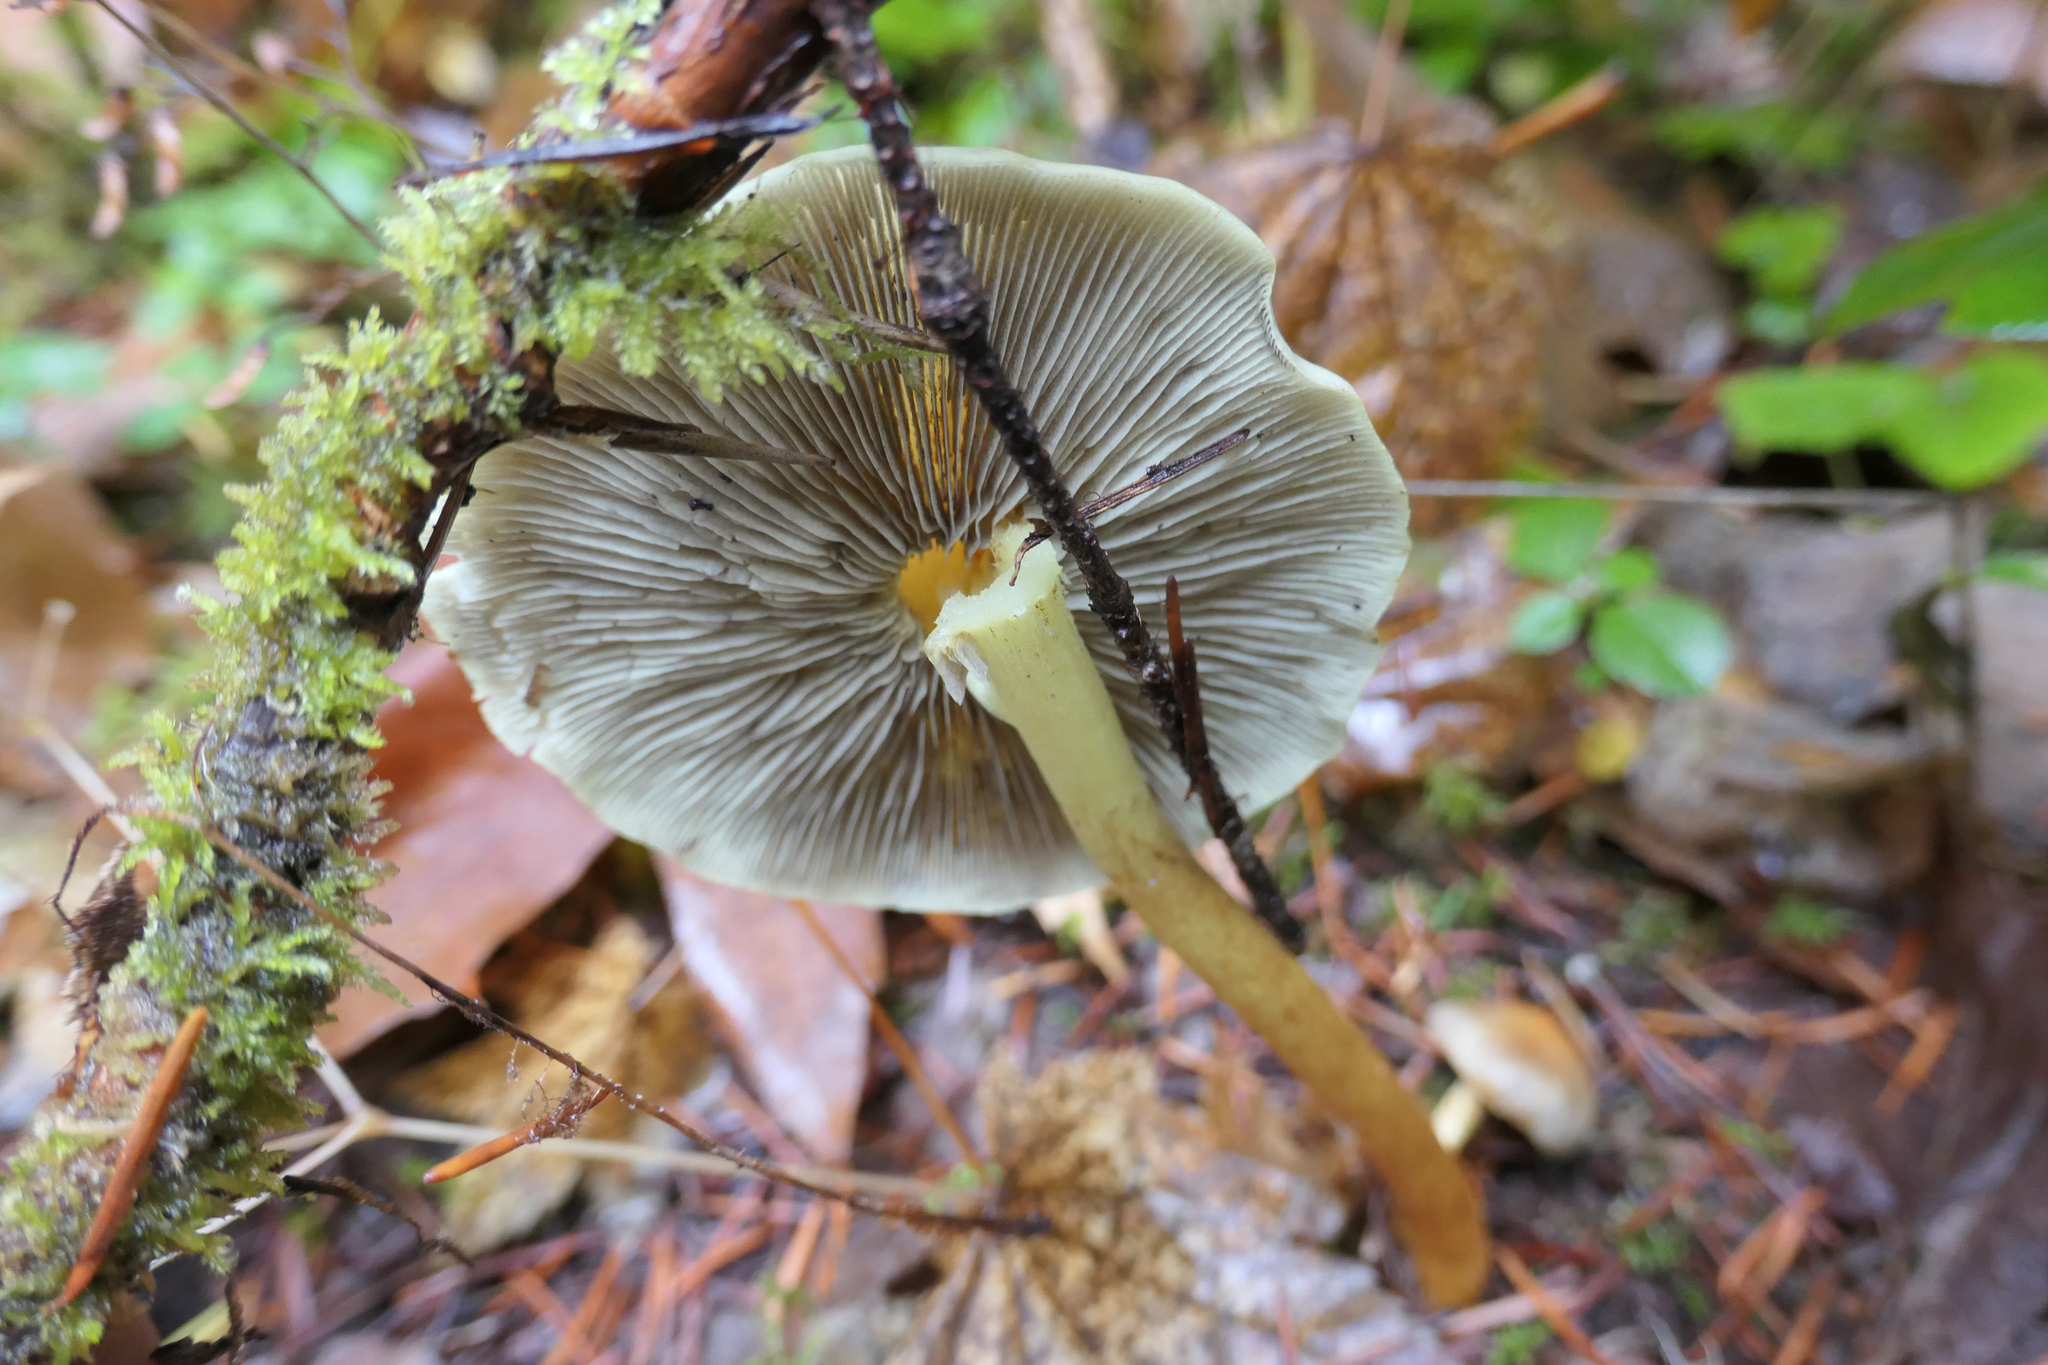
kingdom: Fungi
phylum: Basidiomycota
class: Agaricomycetes
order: Agaricales
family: Strophariaceae
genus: Hypholoma
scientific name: Hypholoma fasciculare
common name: Sulphur tuft
